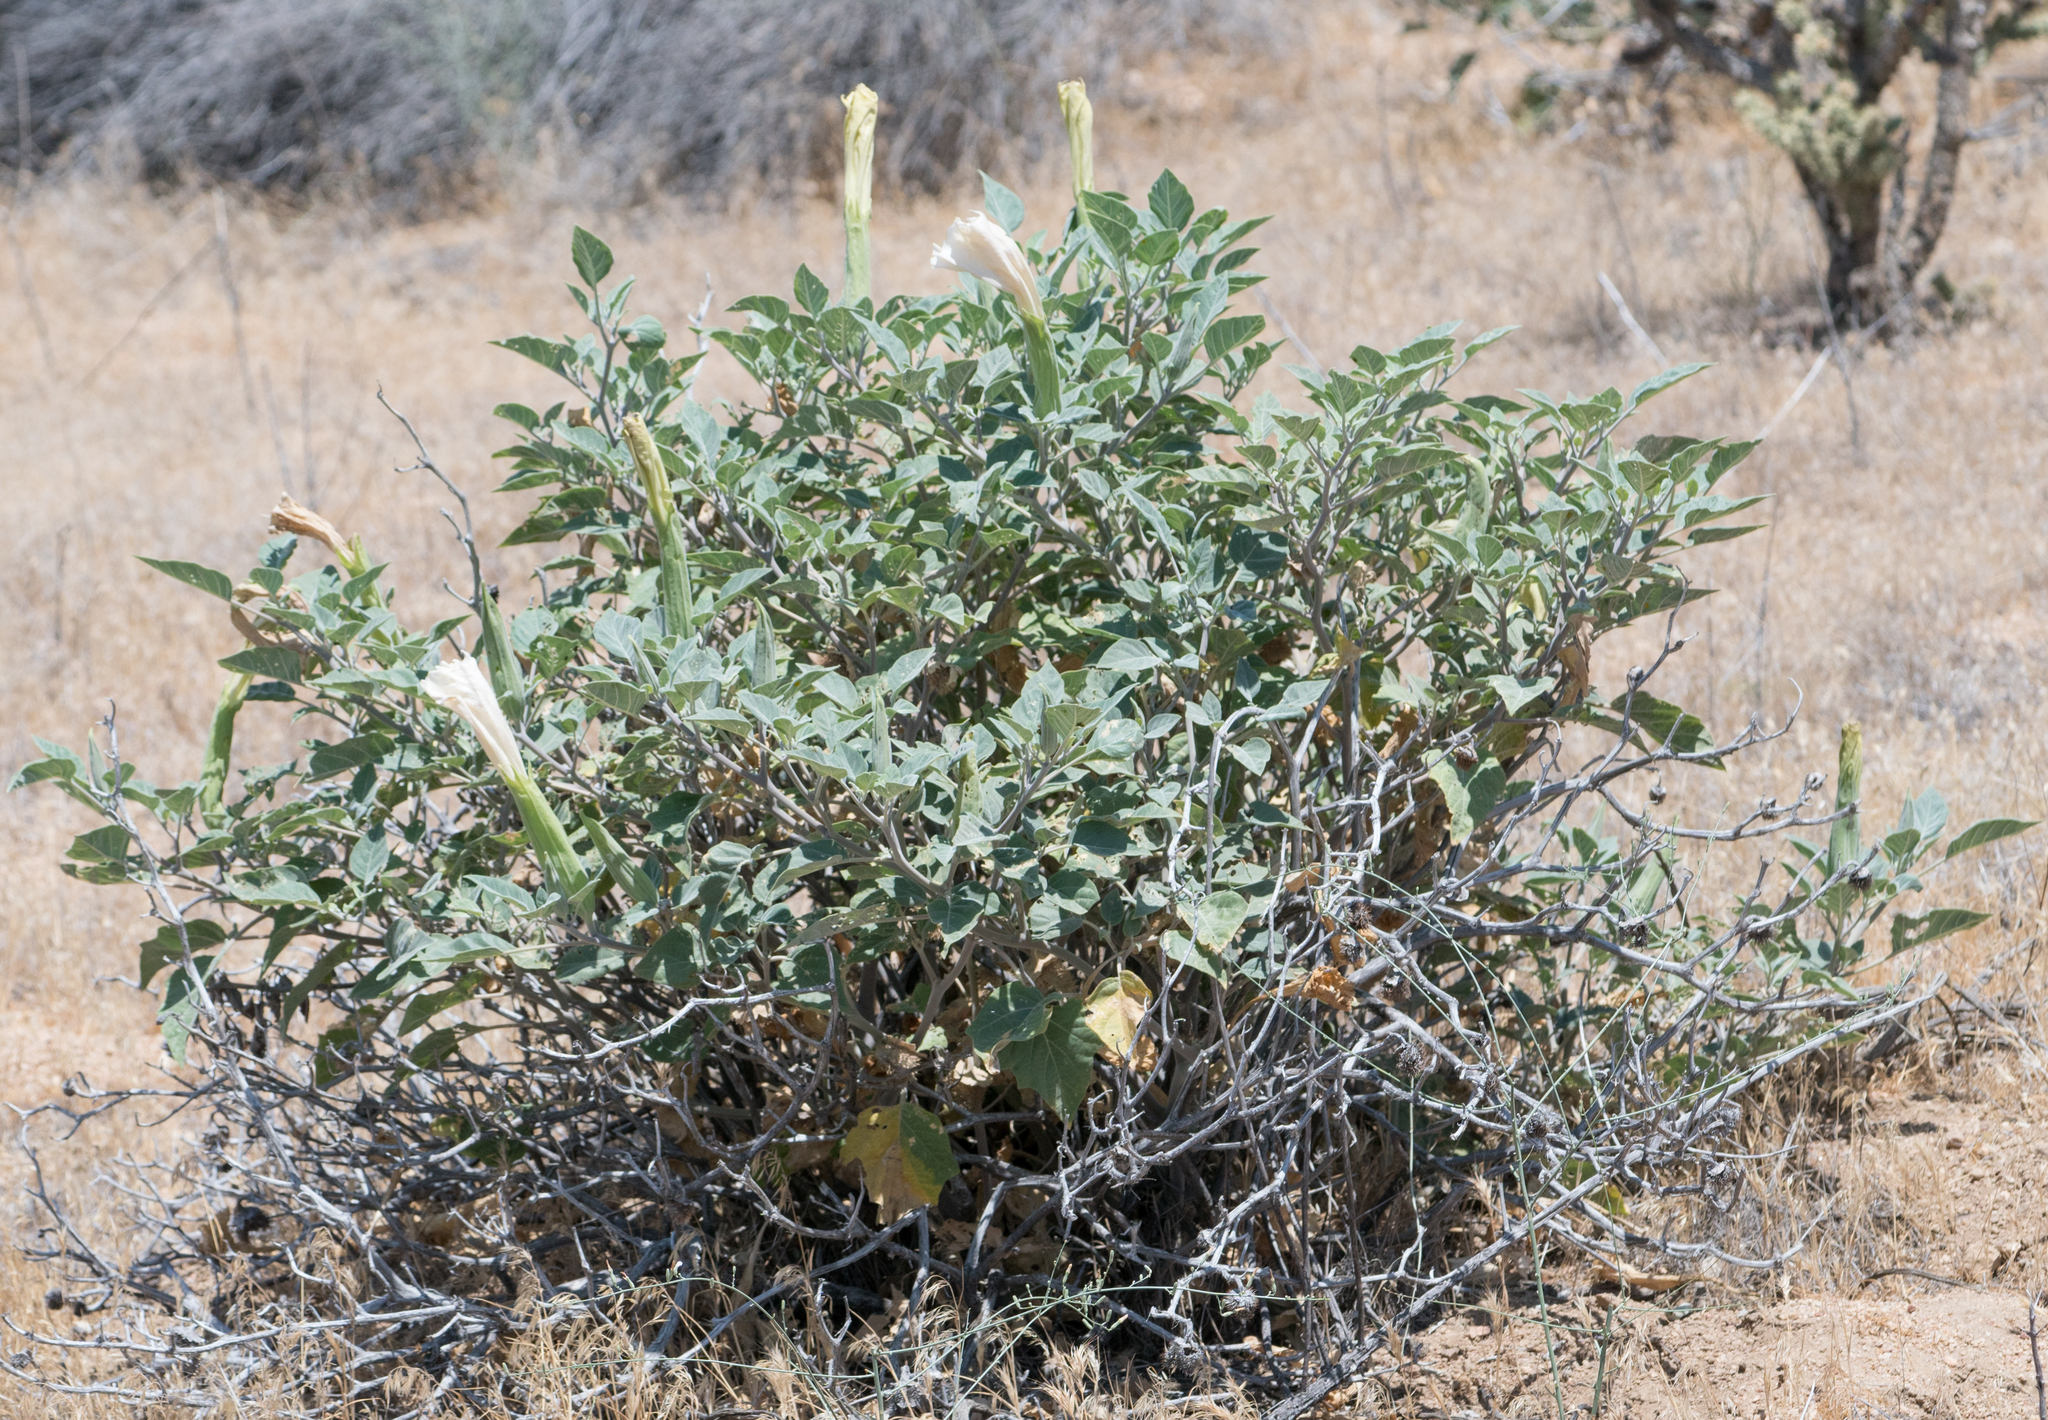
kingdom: Plantae
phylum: Tracheophyta
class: Magnoliopsida
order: Solanales
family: Solanaceae
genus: Datura
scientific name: Datura wrightii
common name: Sacred thorn-apple
